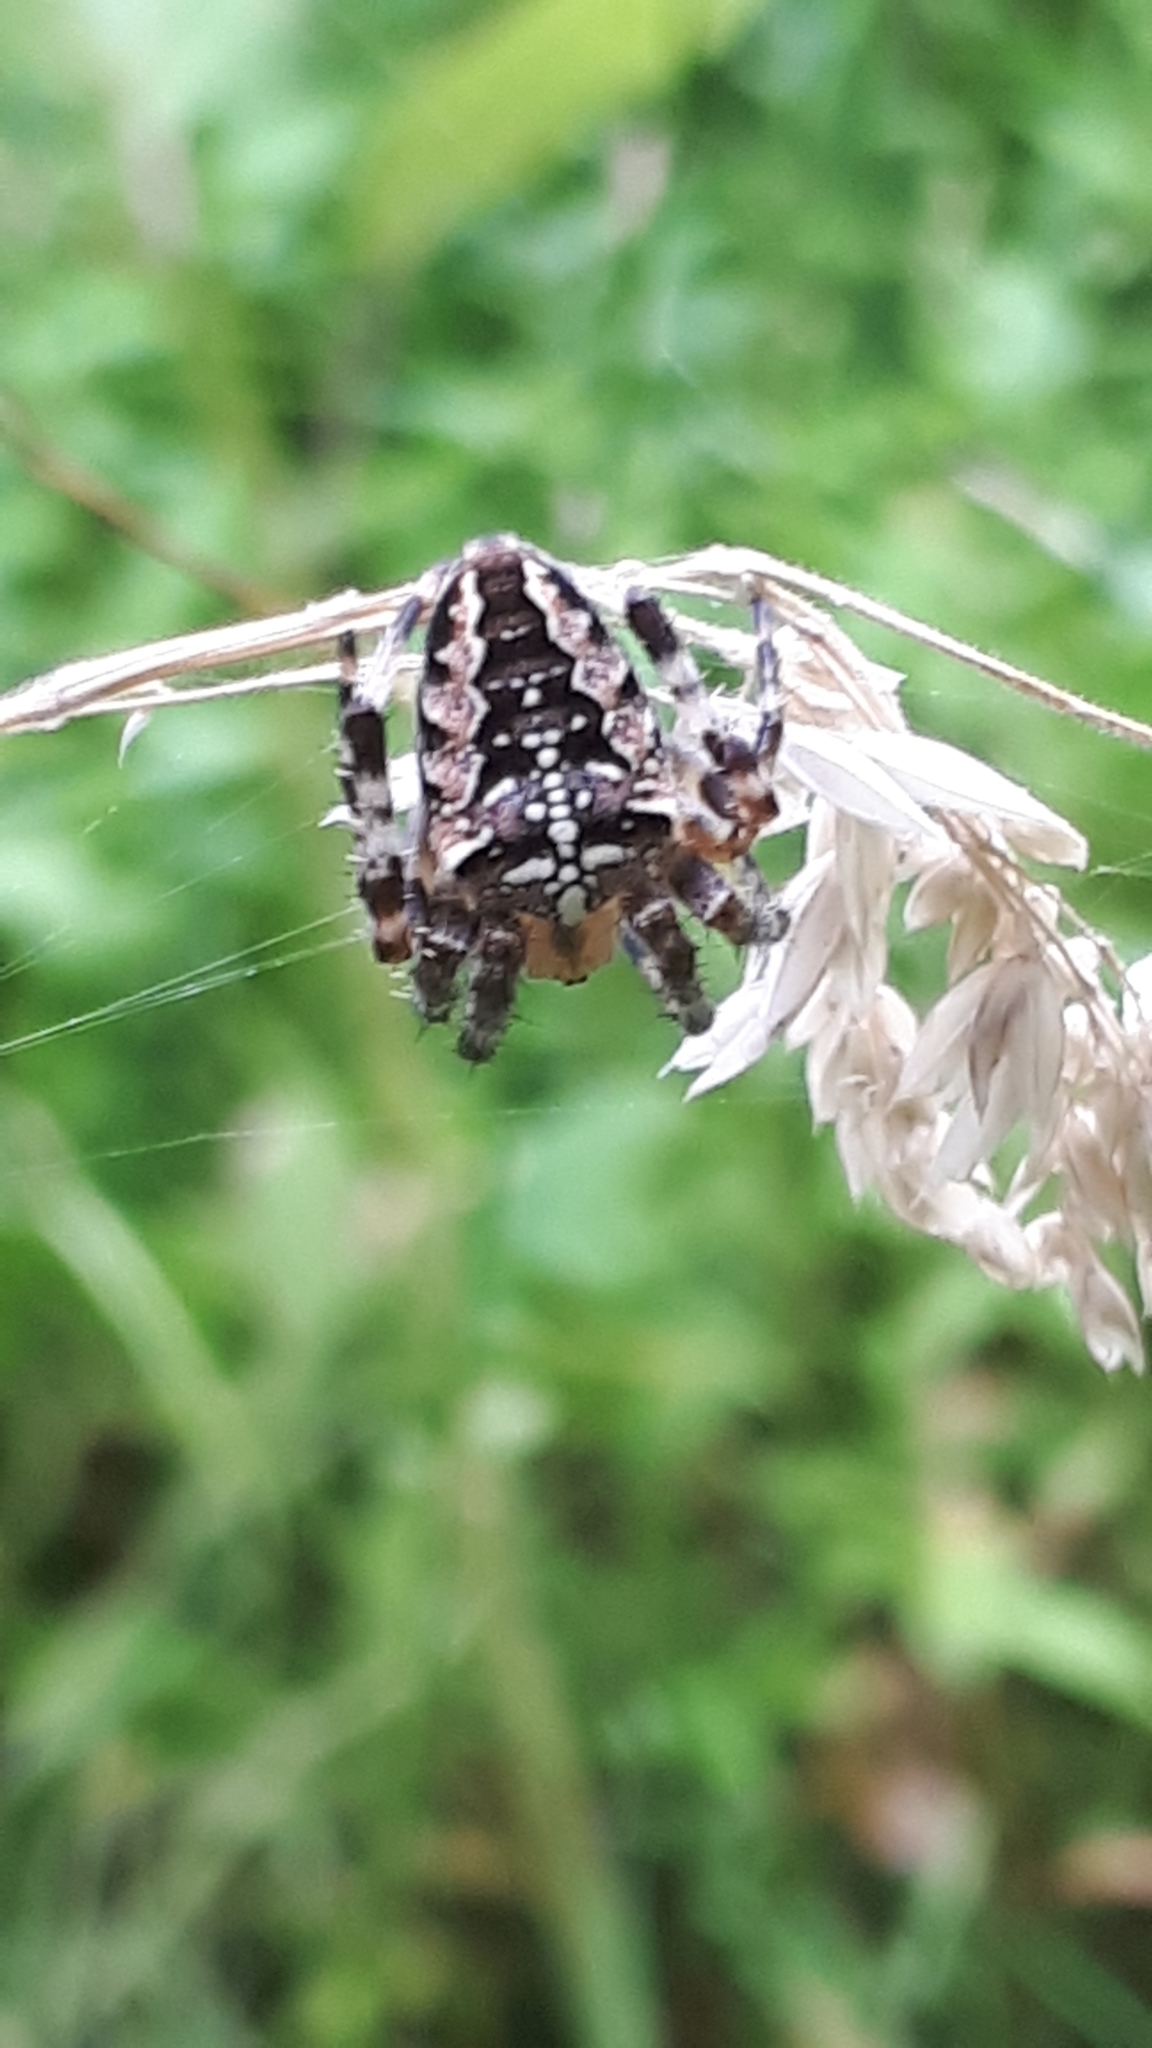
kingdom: Animalia
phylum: Arthropoda
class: Arachnida
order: Araneae
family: Araneidae
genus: Araneus
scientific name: Araneus diadematus
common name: Cross orbweaver
